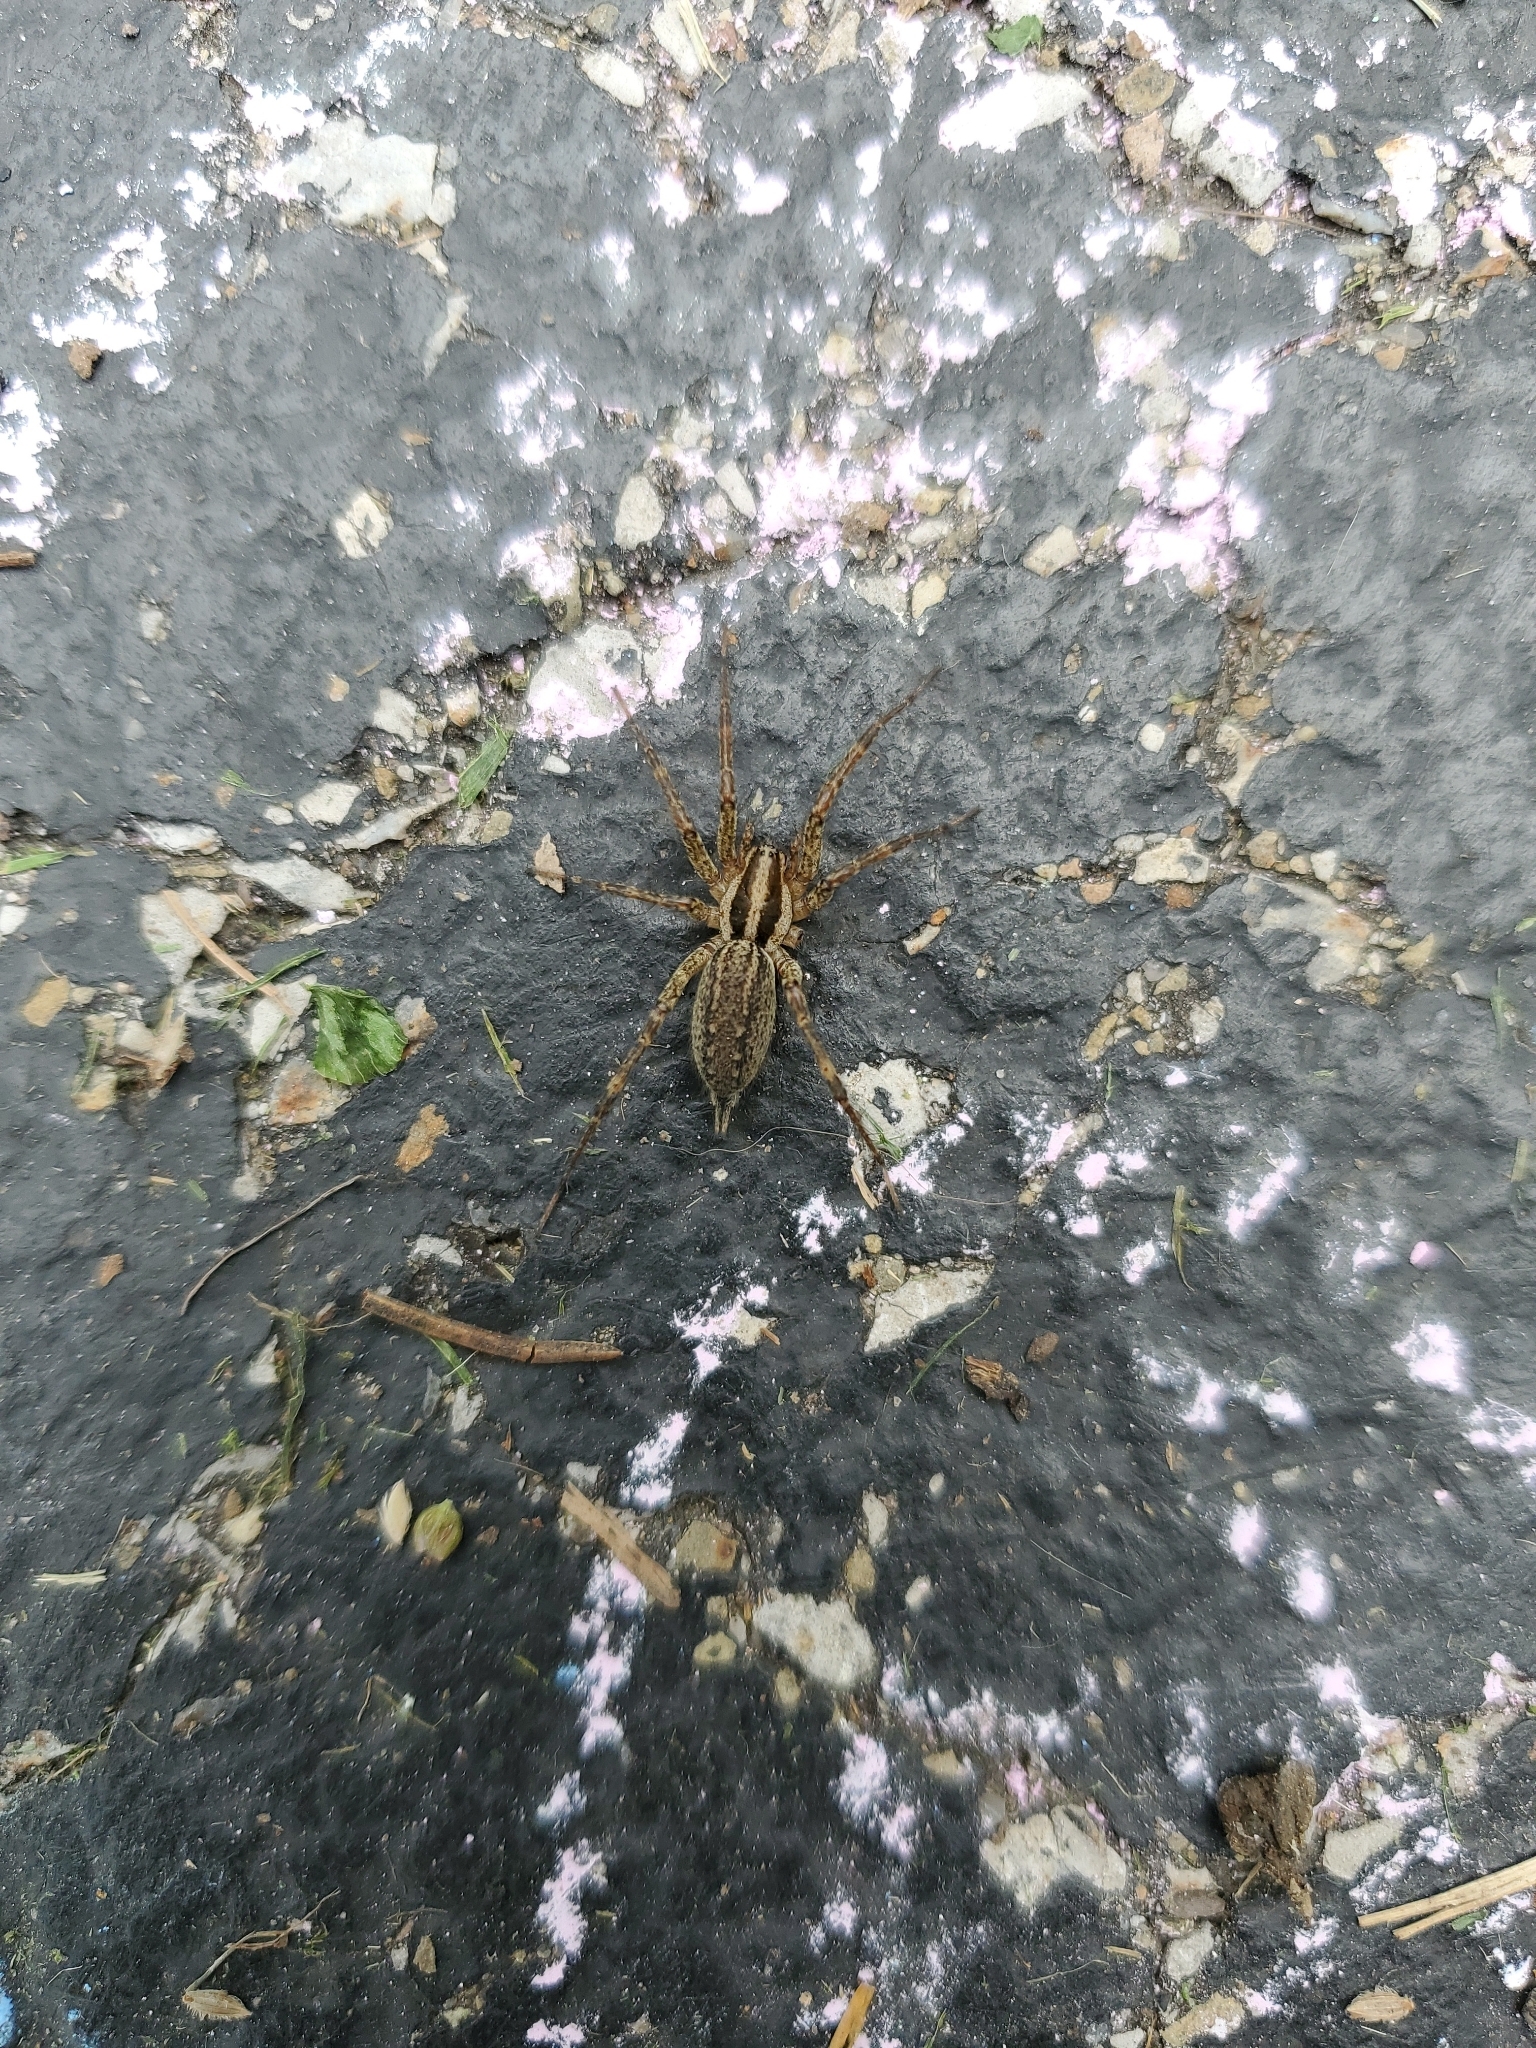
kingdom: Animalia
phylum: Arthropoda
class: Arachnida
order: Araneae
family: Agelenidae
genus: Agelenopsis
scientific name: Agelenopsis
